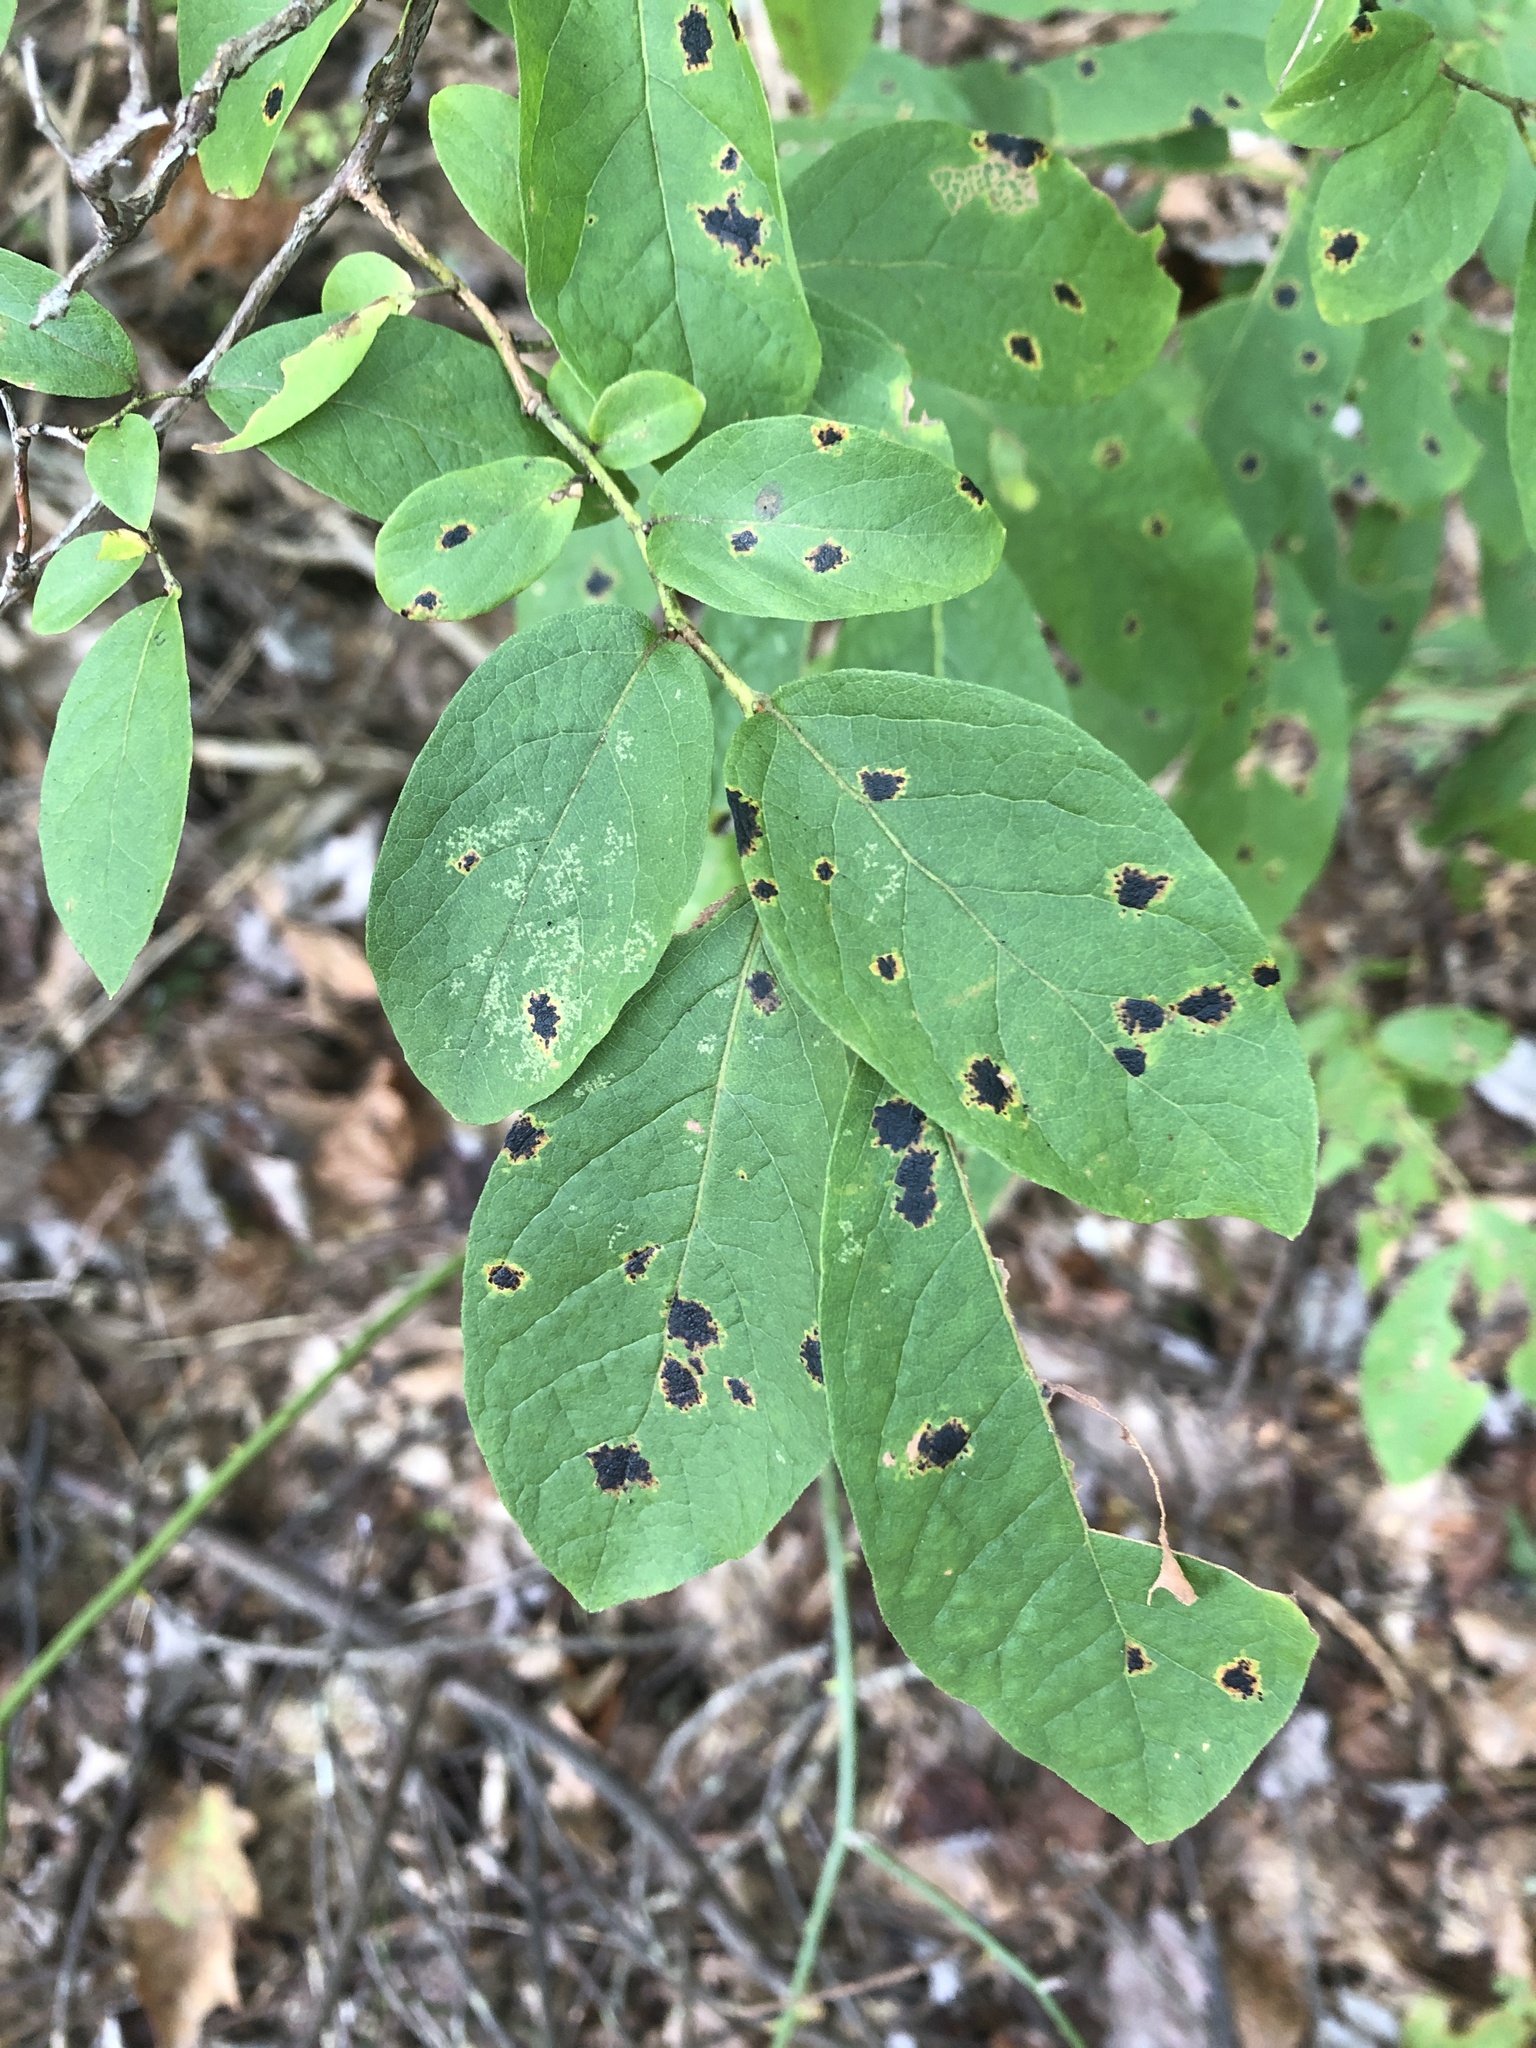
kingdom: Plantae
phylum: Tracheophyta
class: Magnoliopsida
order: Malvales
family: Thymelaeaceae
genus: Dirca
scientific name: Dirca palustris
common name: Leatherwood
